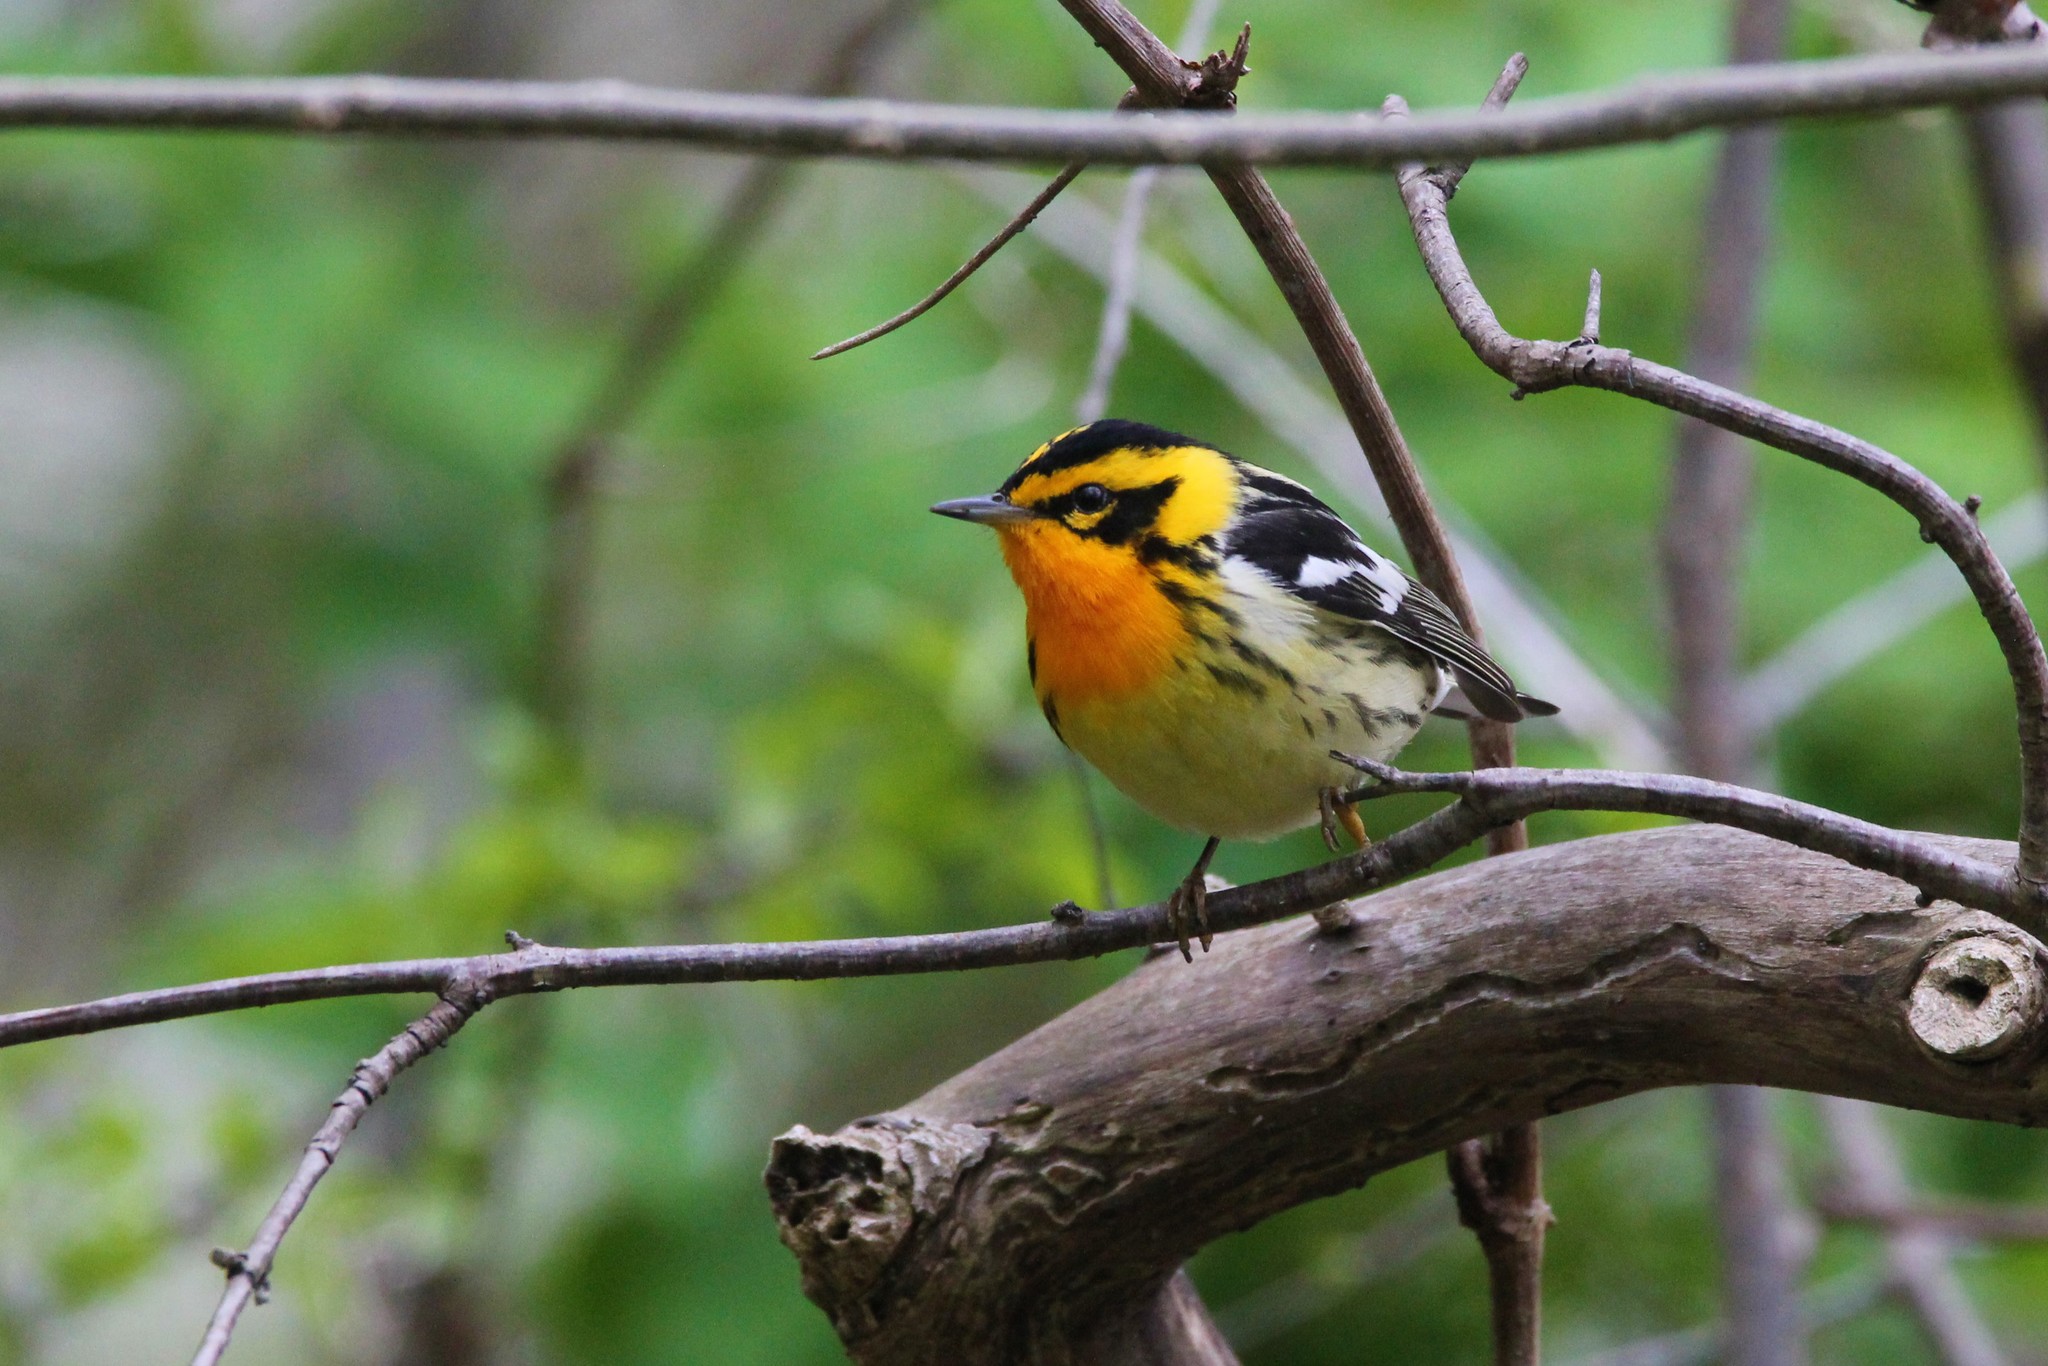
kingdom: Animalia
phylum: Chordata
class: Aves
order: Passeriformes
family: Parulidae
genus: Setophaga
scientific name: Setophaga fusca
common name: Blackburnian warbler
